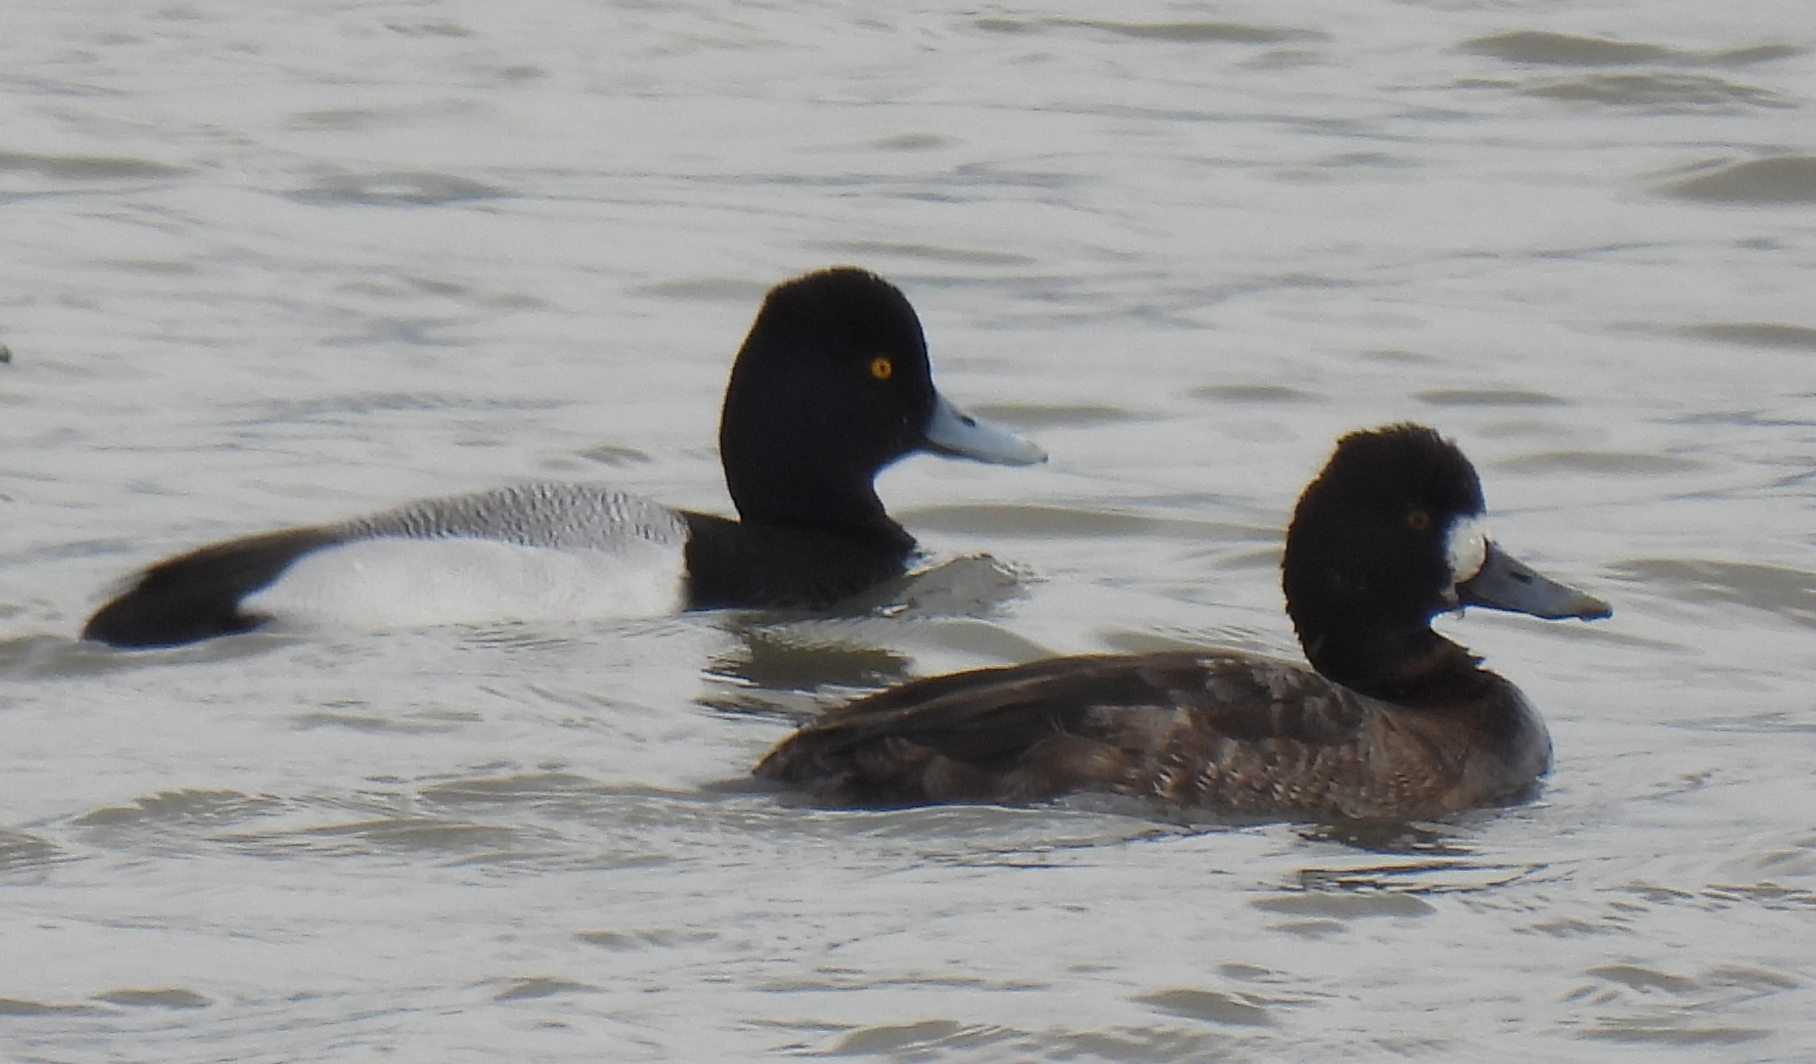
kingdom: Animalia
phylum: Chordata
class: Aves
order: Anseriformes
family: Anatidae
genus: Aythya
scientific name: Aythya affinis
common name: Lesser scaup
